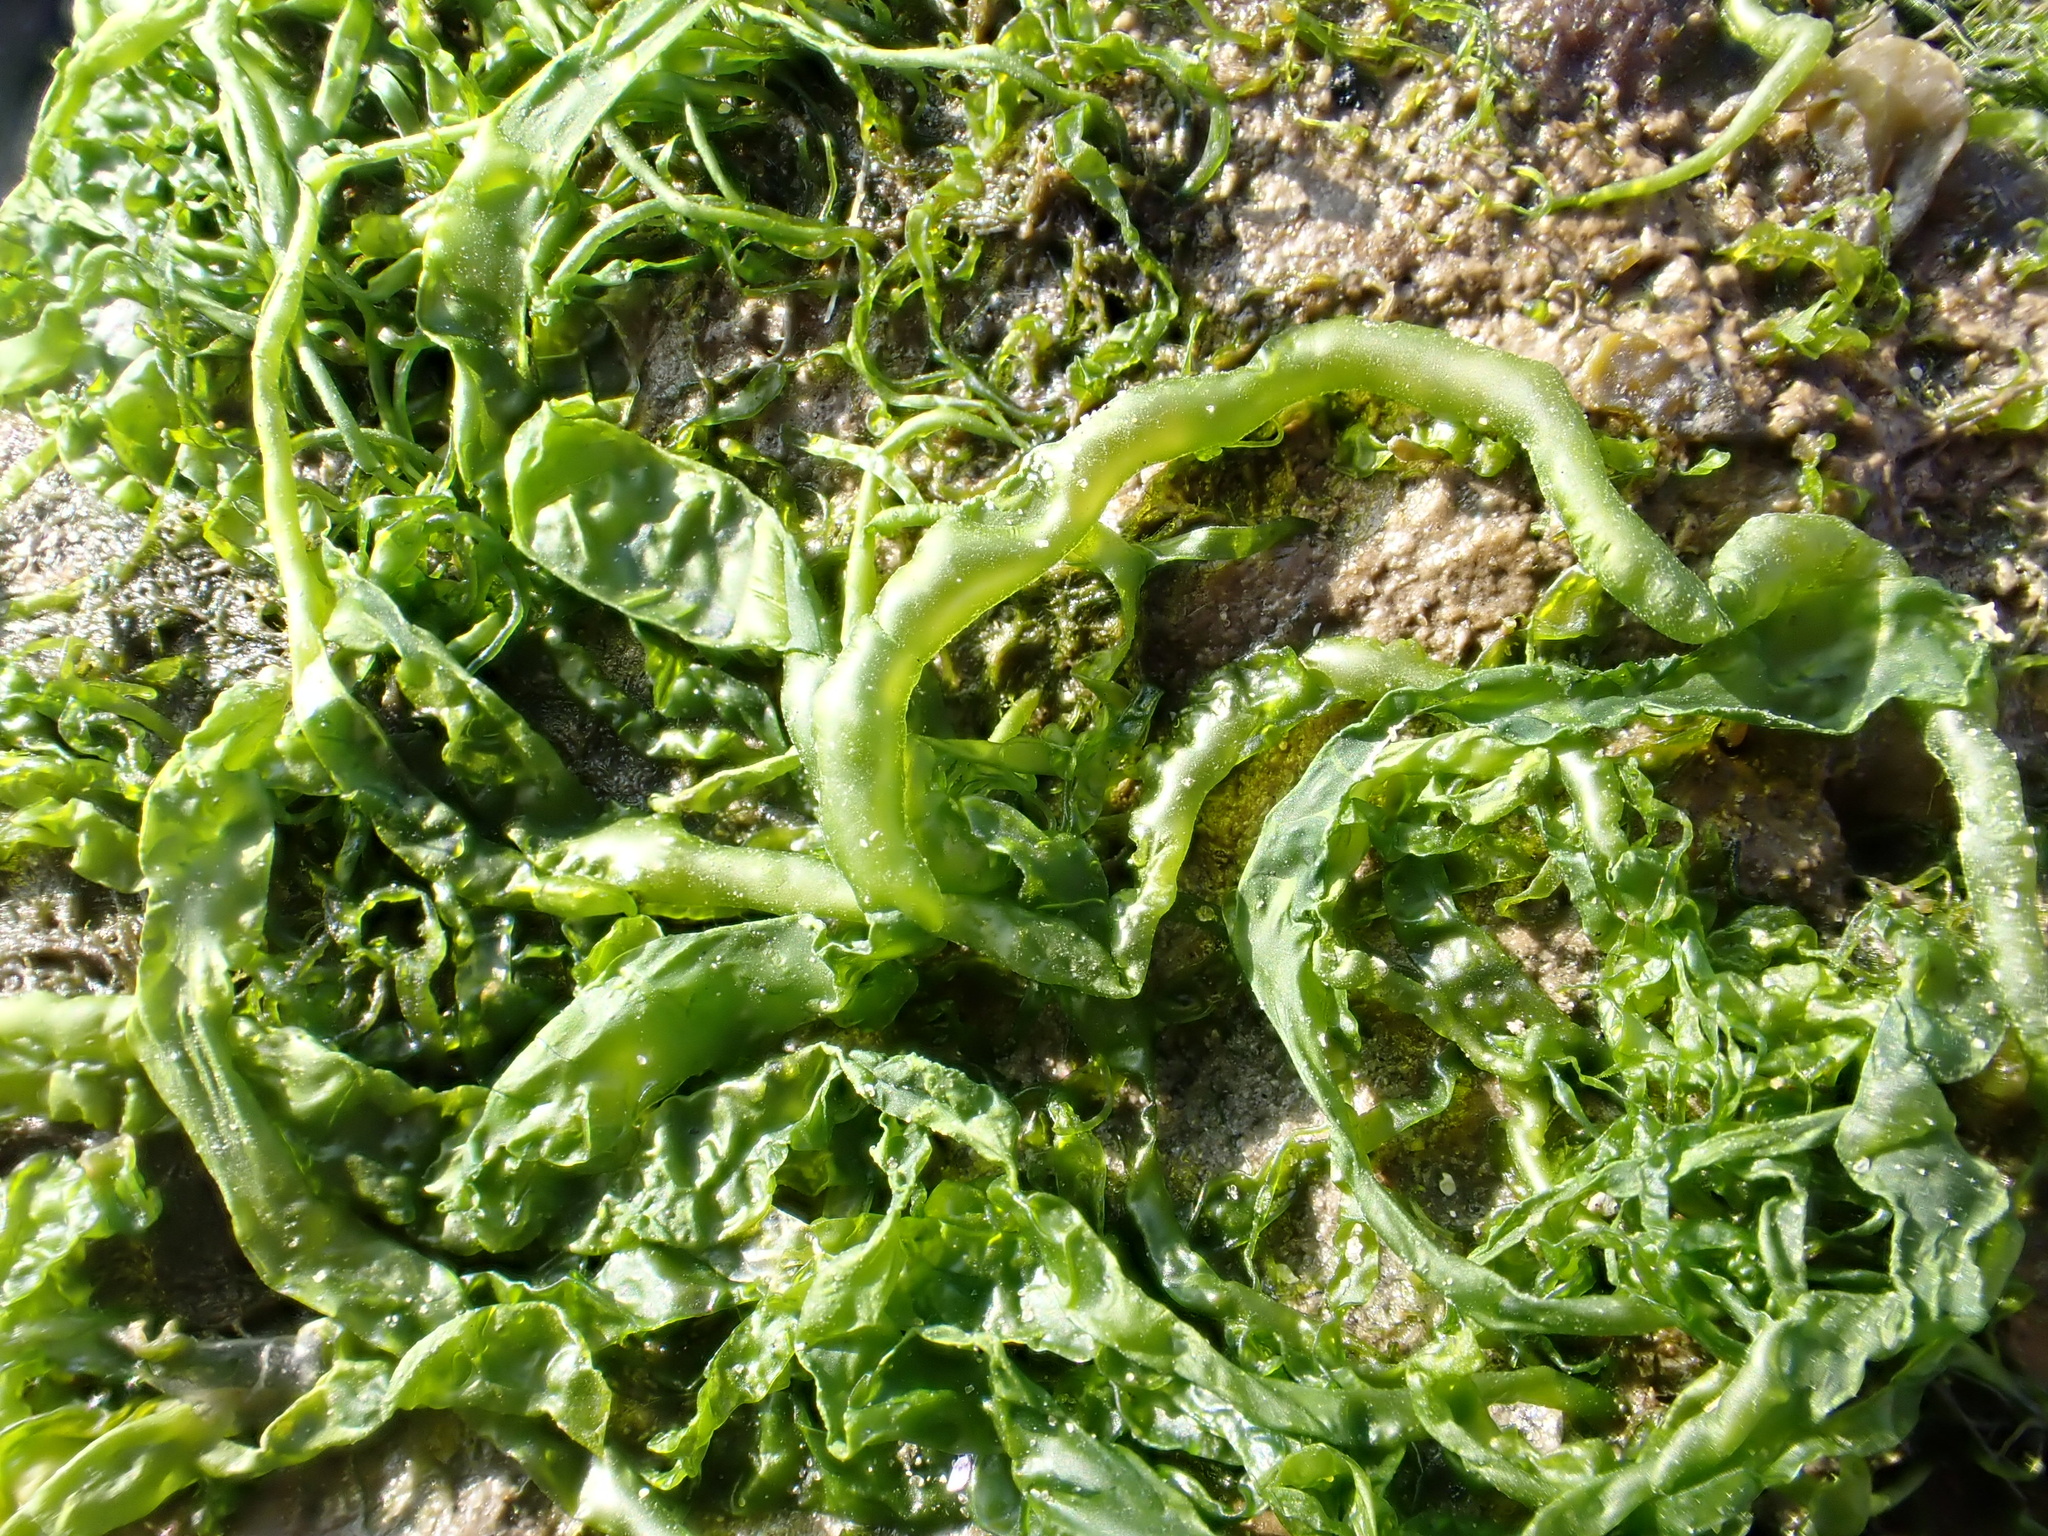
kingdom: Plantae
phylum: Chlorophyta
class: Ulvophyceae
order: Ulvales
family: Ulvaceae
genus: Ulva
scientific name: Ulva lactuca
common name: Sea lettuce
